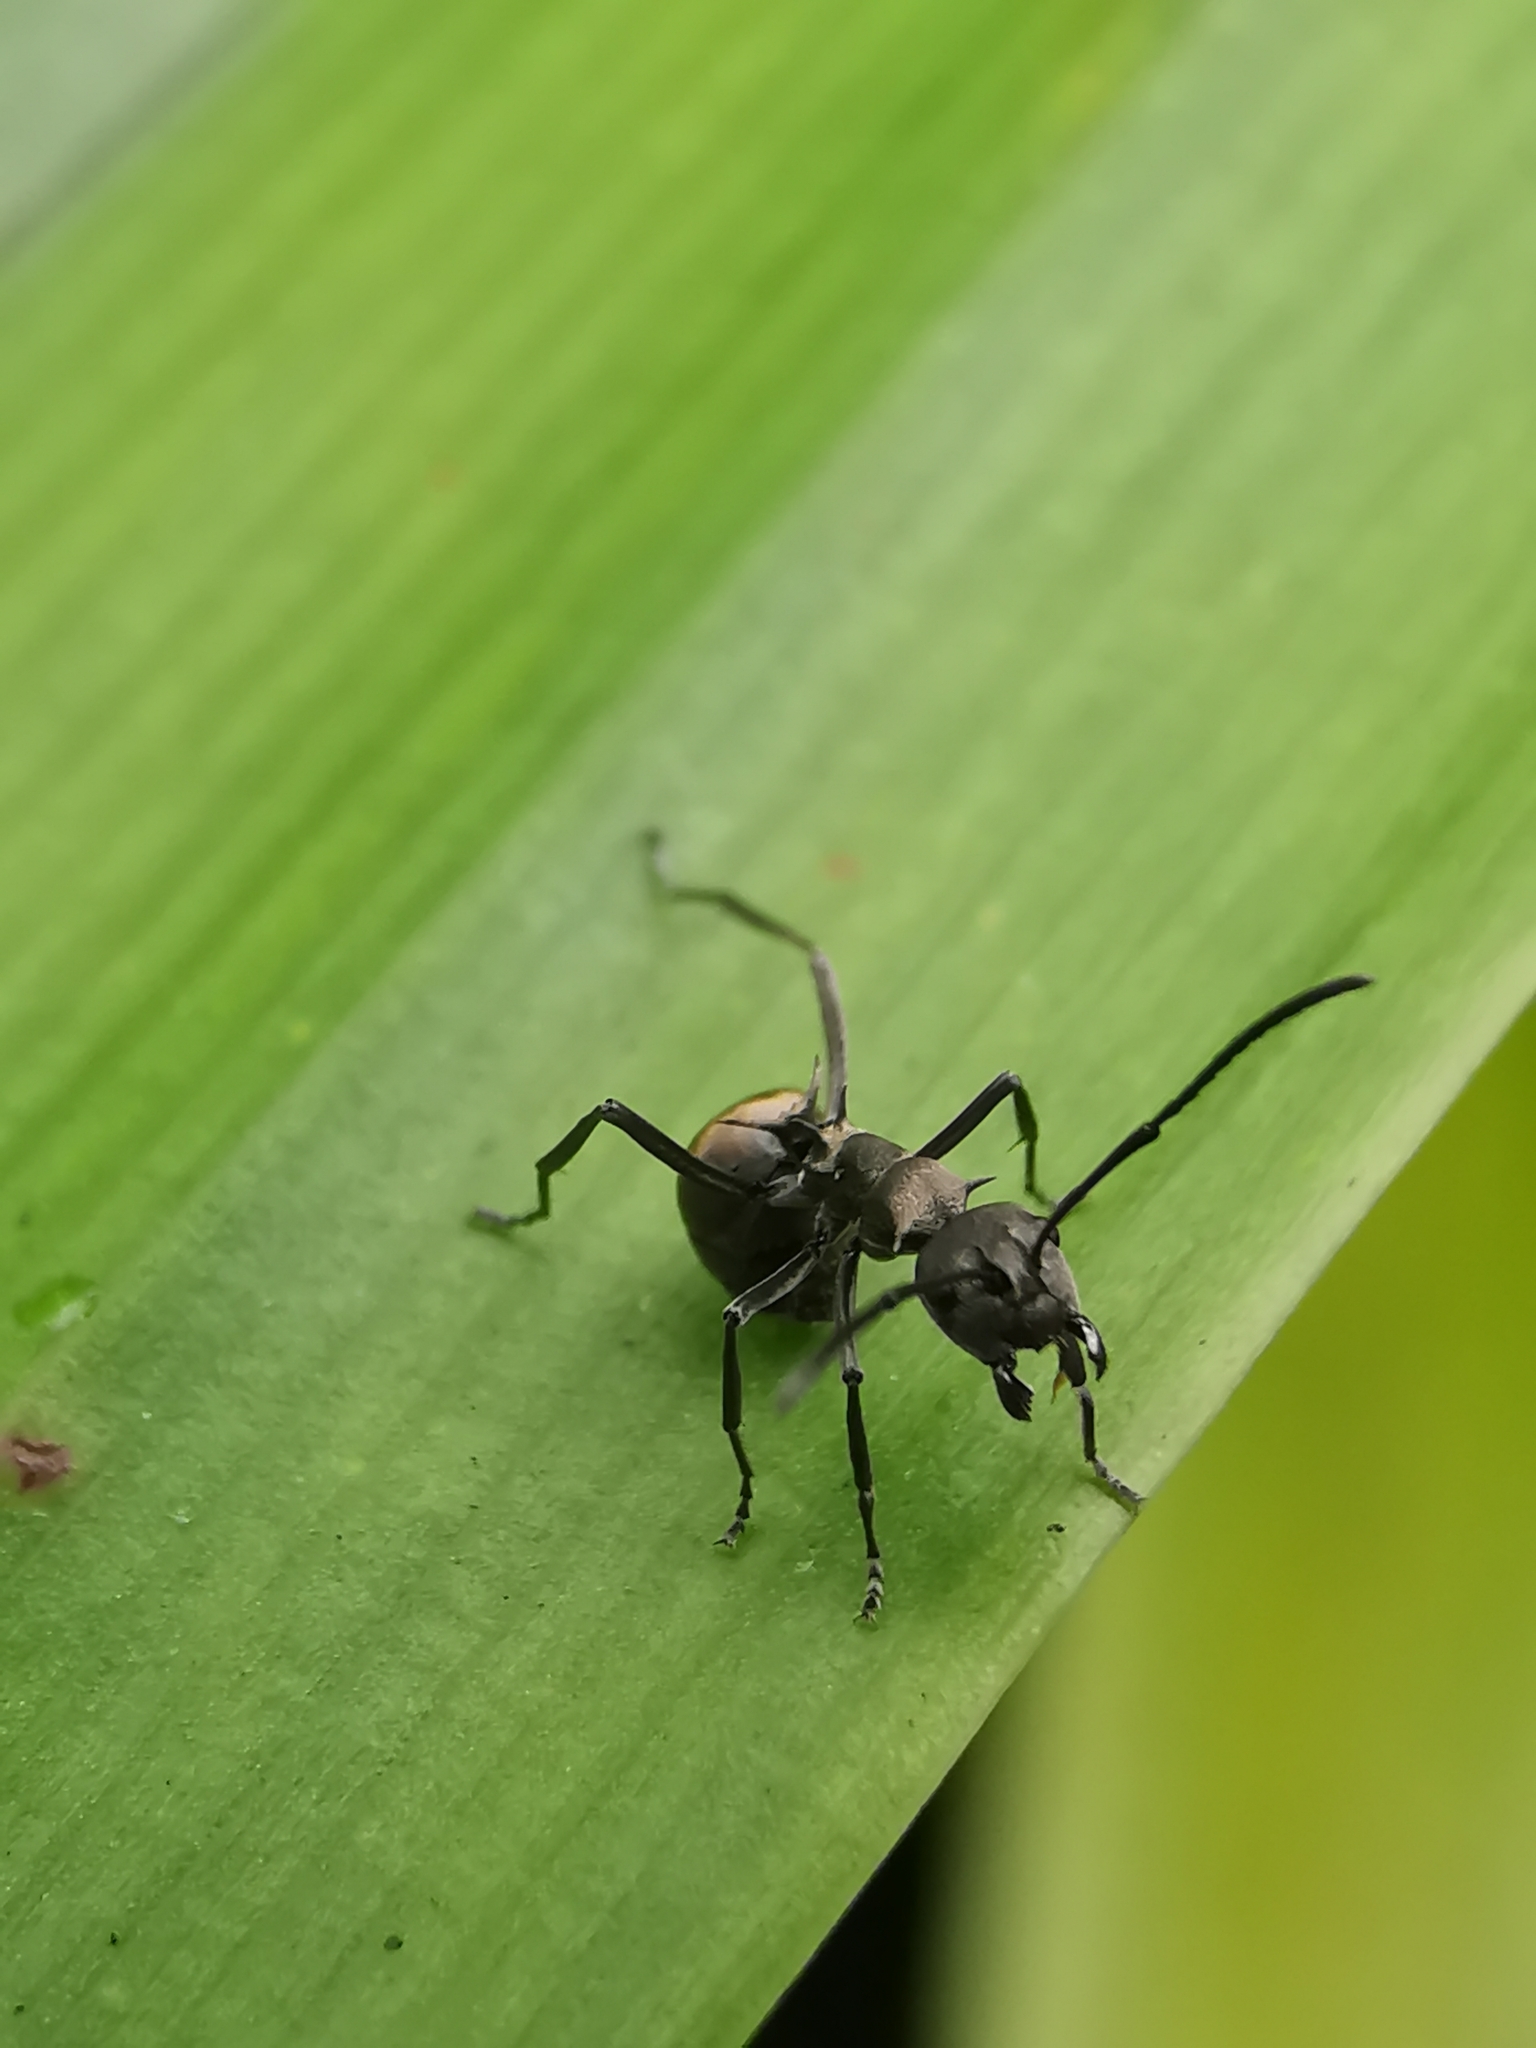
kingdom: Animalia
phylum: Arthropoda
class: Insecta
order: Hymenoptera
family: Formicidae
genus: Polyrhachis
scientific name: Polyrhachis dives
